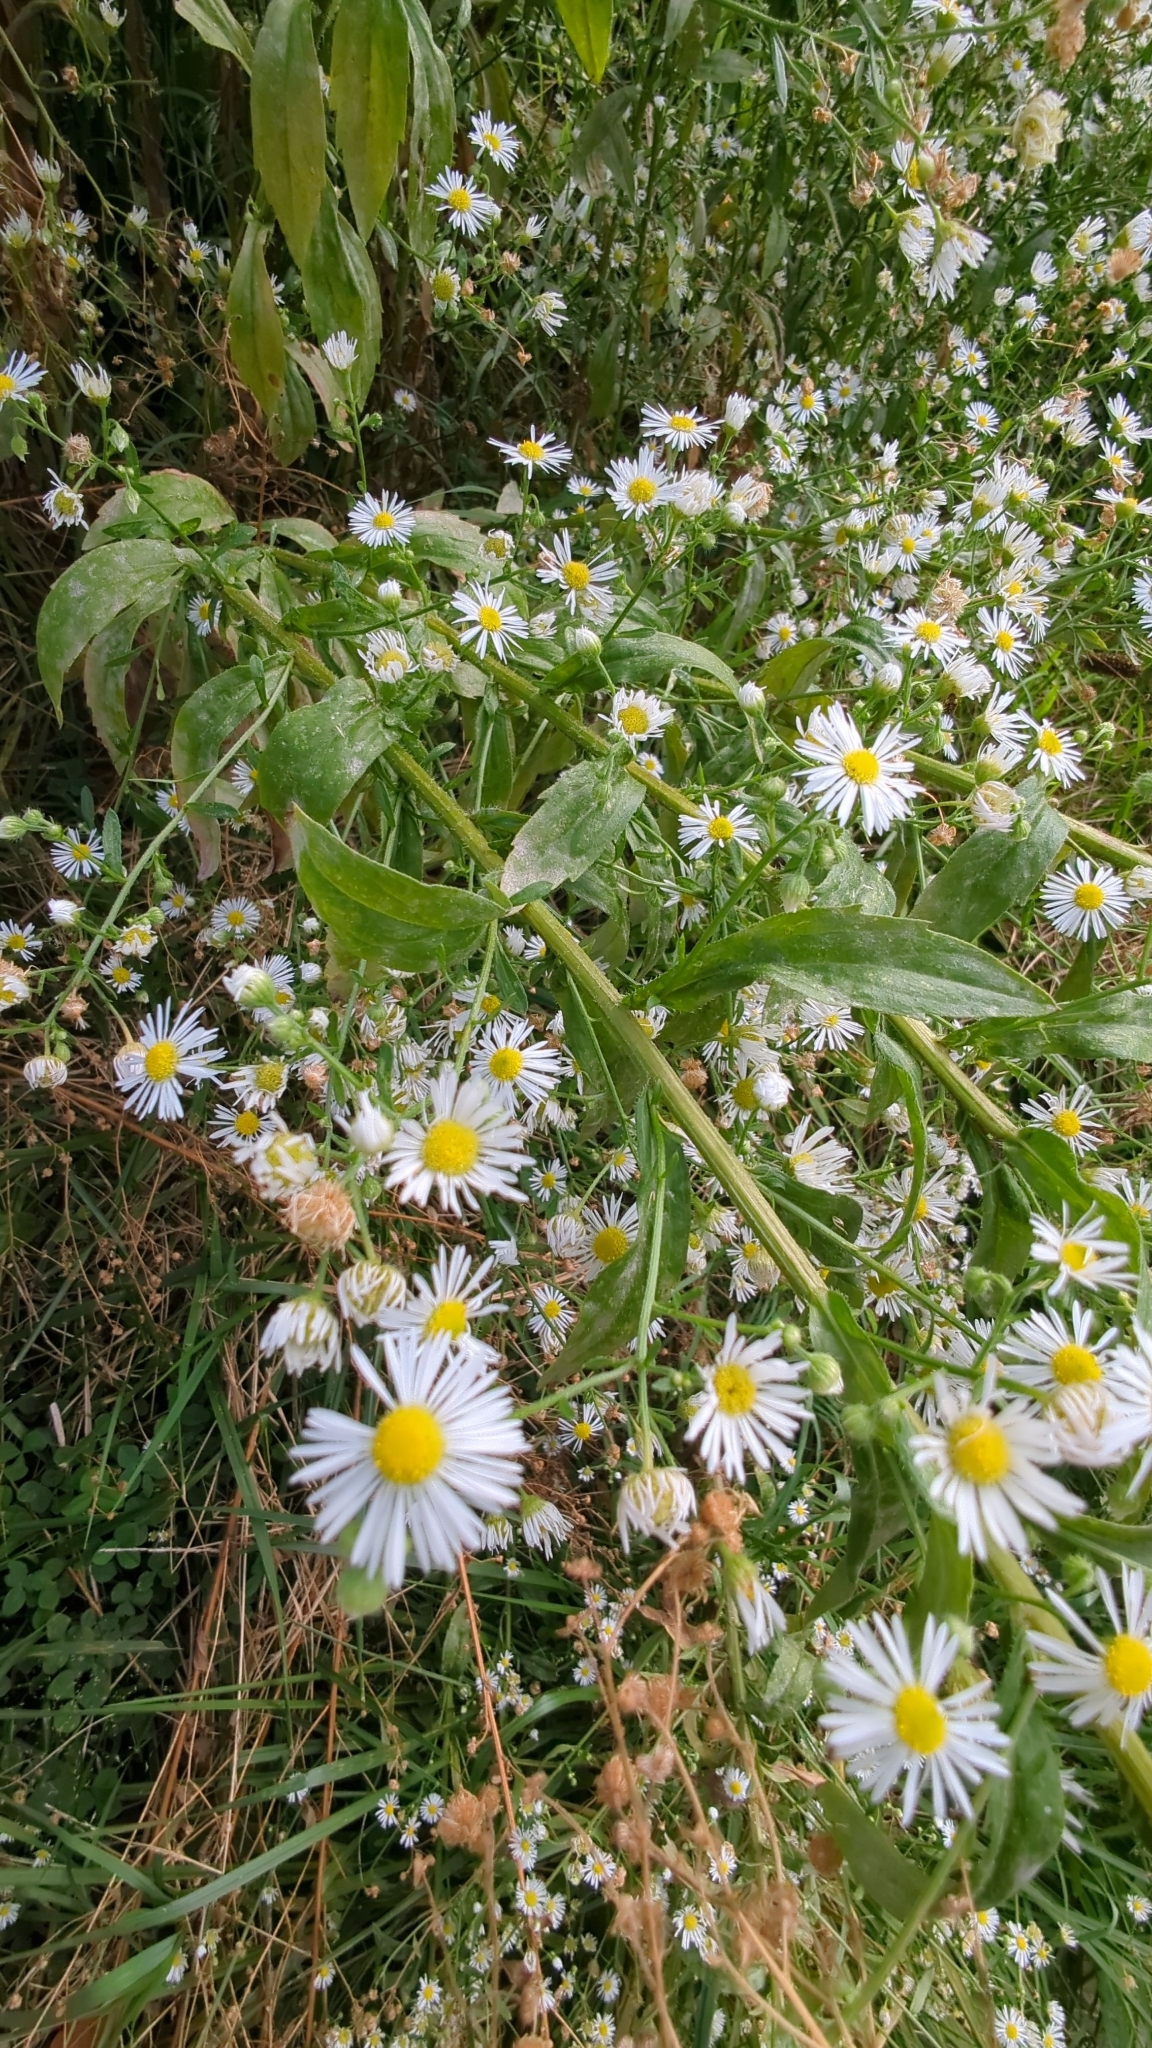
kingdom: Plantae
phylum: Tracheophyta
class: Magnoliopsida
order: Asterales
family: Asteraceae
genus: Erigeron
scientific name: Erigeron annuus
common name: Tall fleabane
